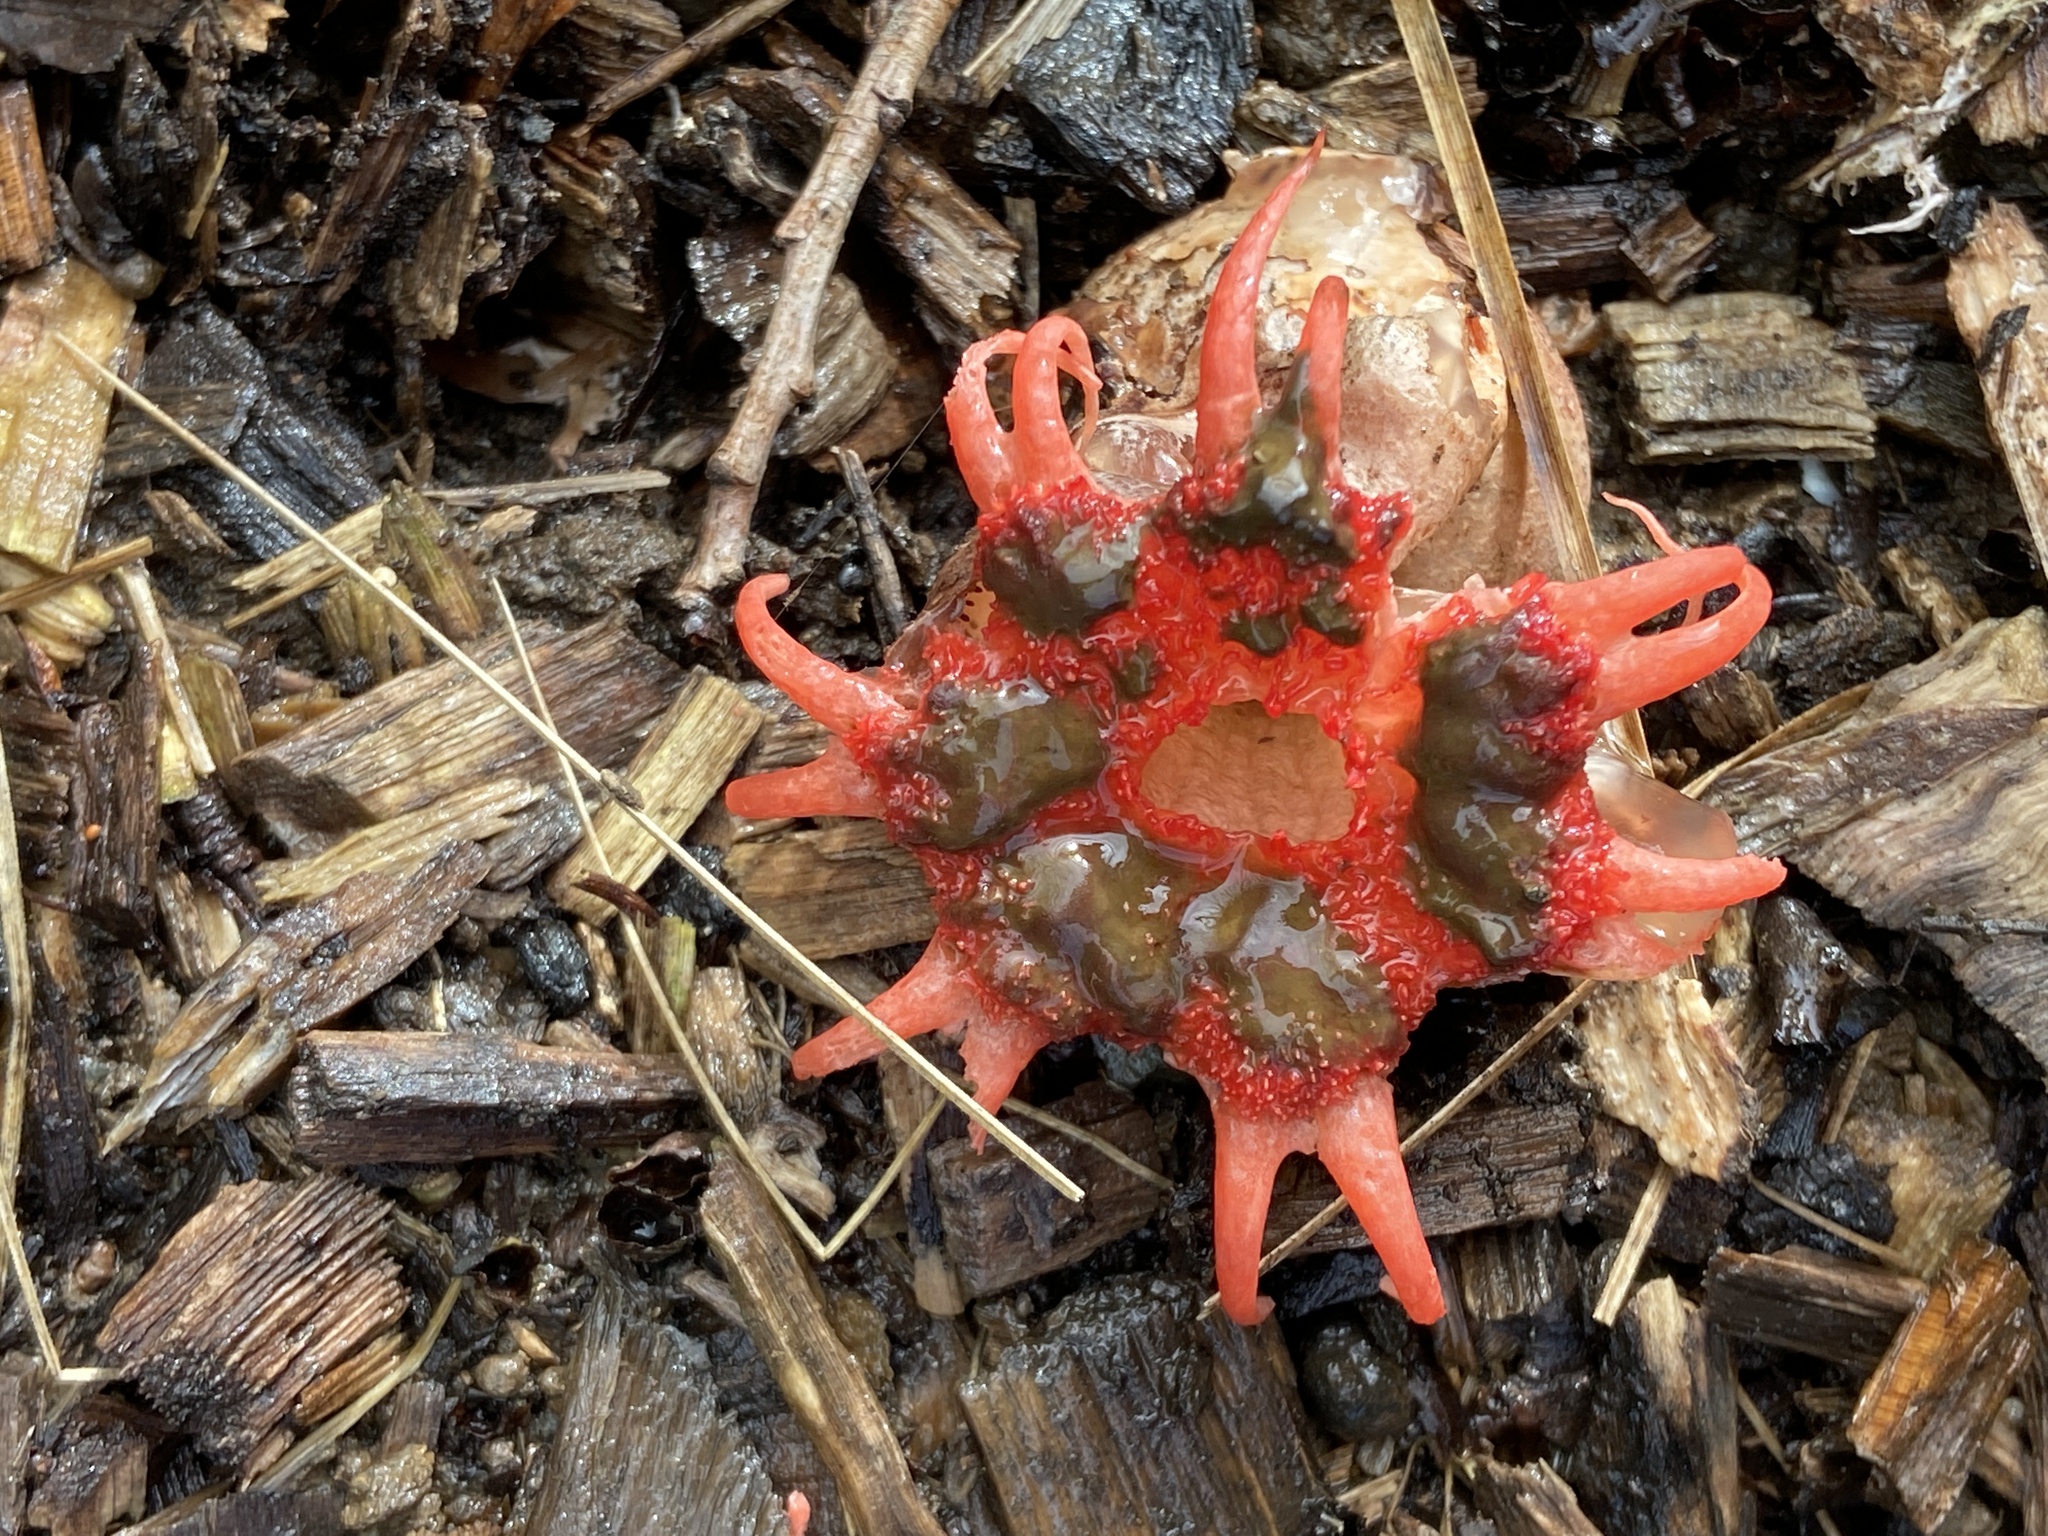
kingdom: Fungi
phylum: Basidiomycota
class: Agaricomycetes
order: Phallales
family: Phallaceae
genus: Aseroe
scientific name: Aseroe rubra
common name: Starfish fungus
